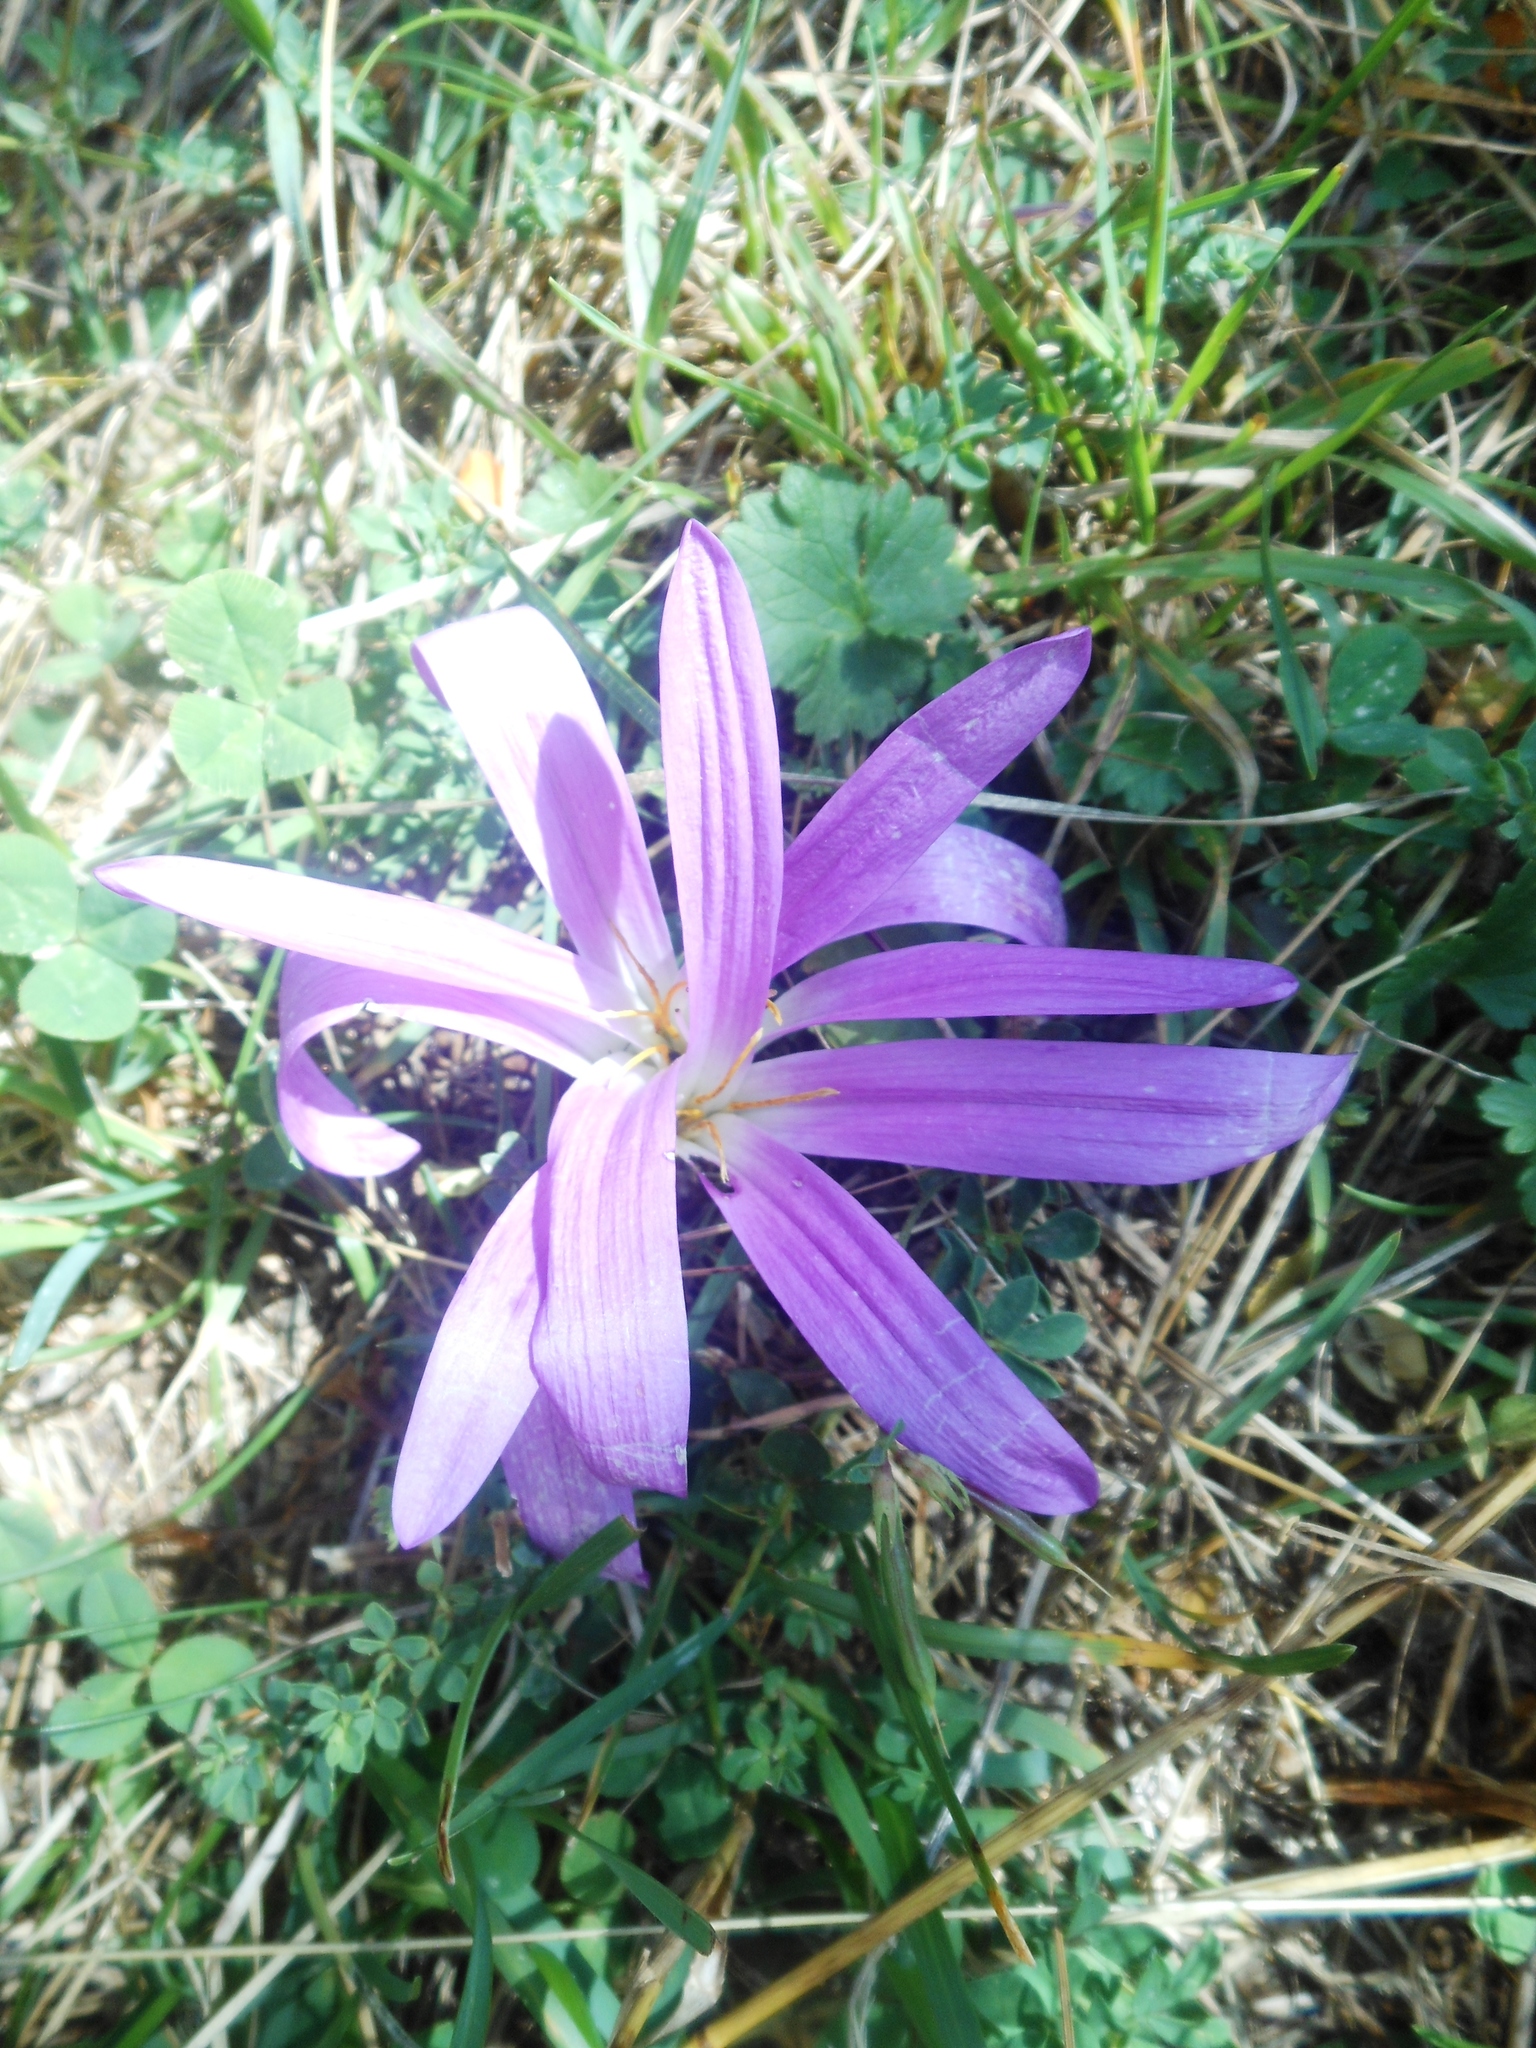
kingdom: Plantae
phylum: Tracheophyta
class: Liliopsida
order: Liliales
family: Colchicaceae
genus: Colchicum
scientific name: Colchicum montanum
